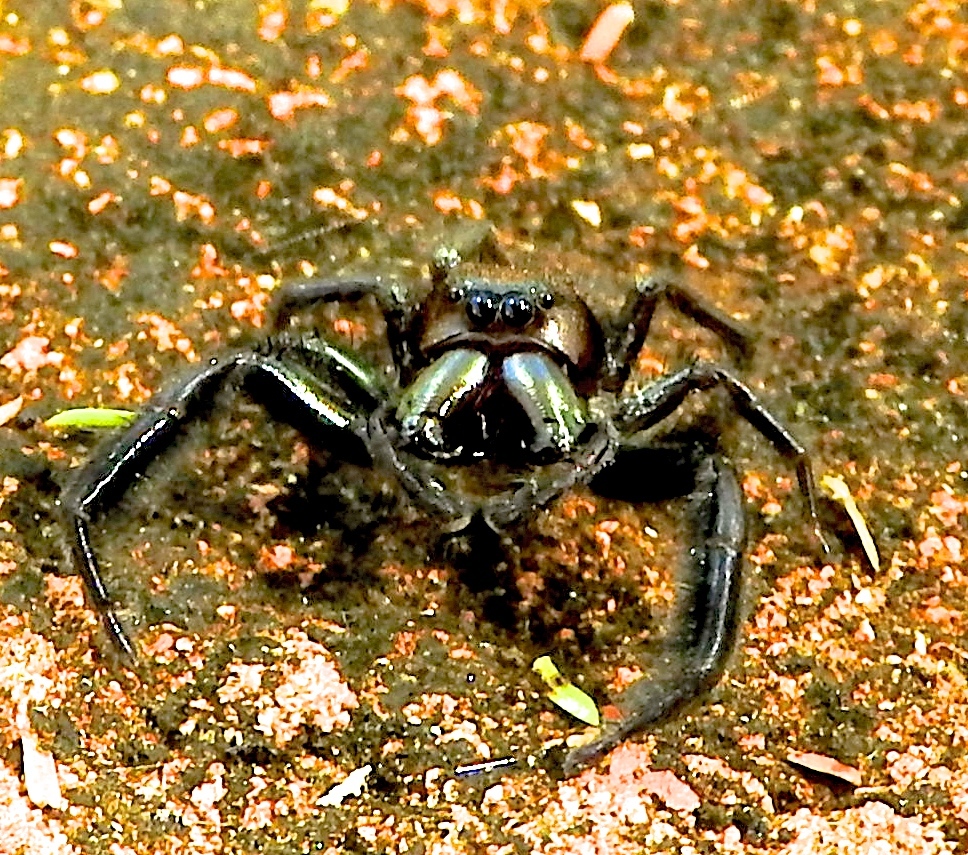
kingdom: Animalia
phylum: Arthropoda
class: Arachnida
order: Araneae
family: Salticidae
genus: Paraphidippus
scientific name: Paraphidippus fartilis
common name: Jumping spiders
